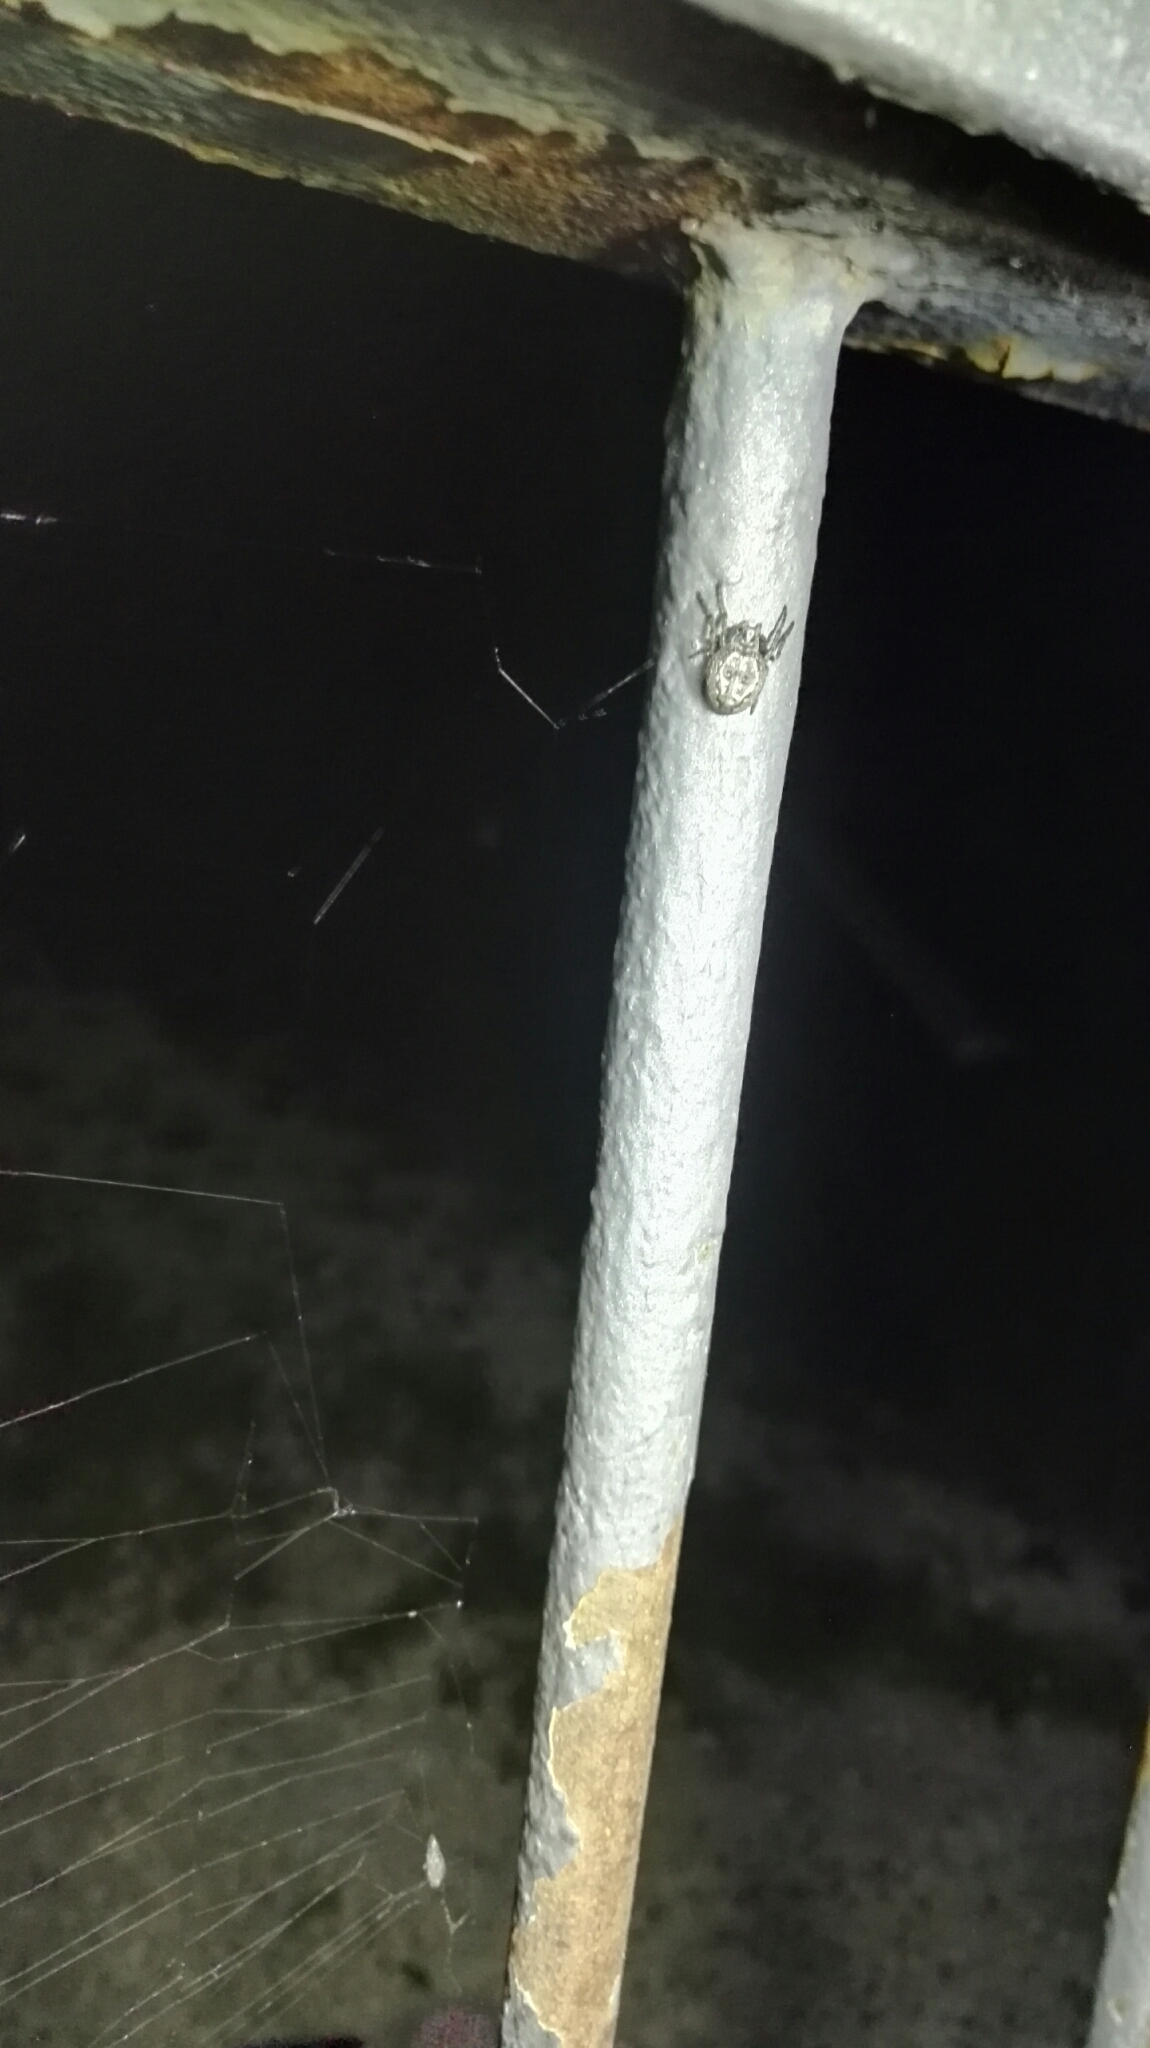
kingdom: Animalia
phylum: Arthropoda
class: Arachnida
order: Araneae
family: Araneidae
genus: Nuctenea
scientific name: Nuctenea umbratica
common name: Toad spider
